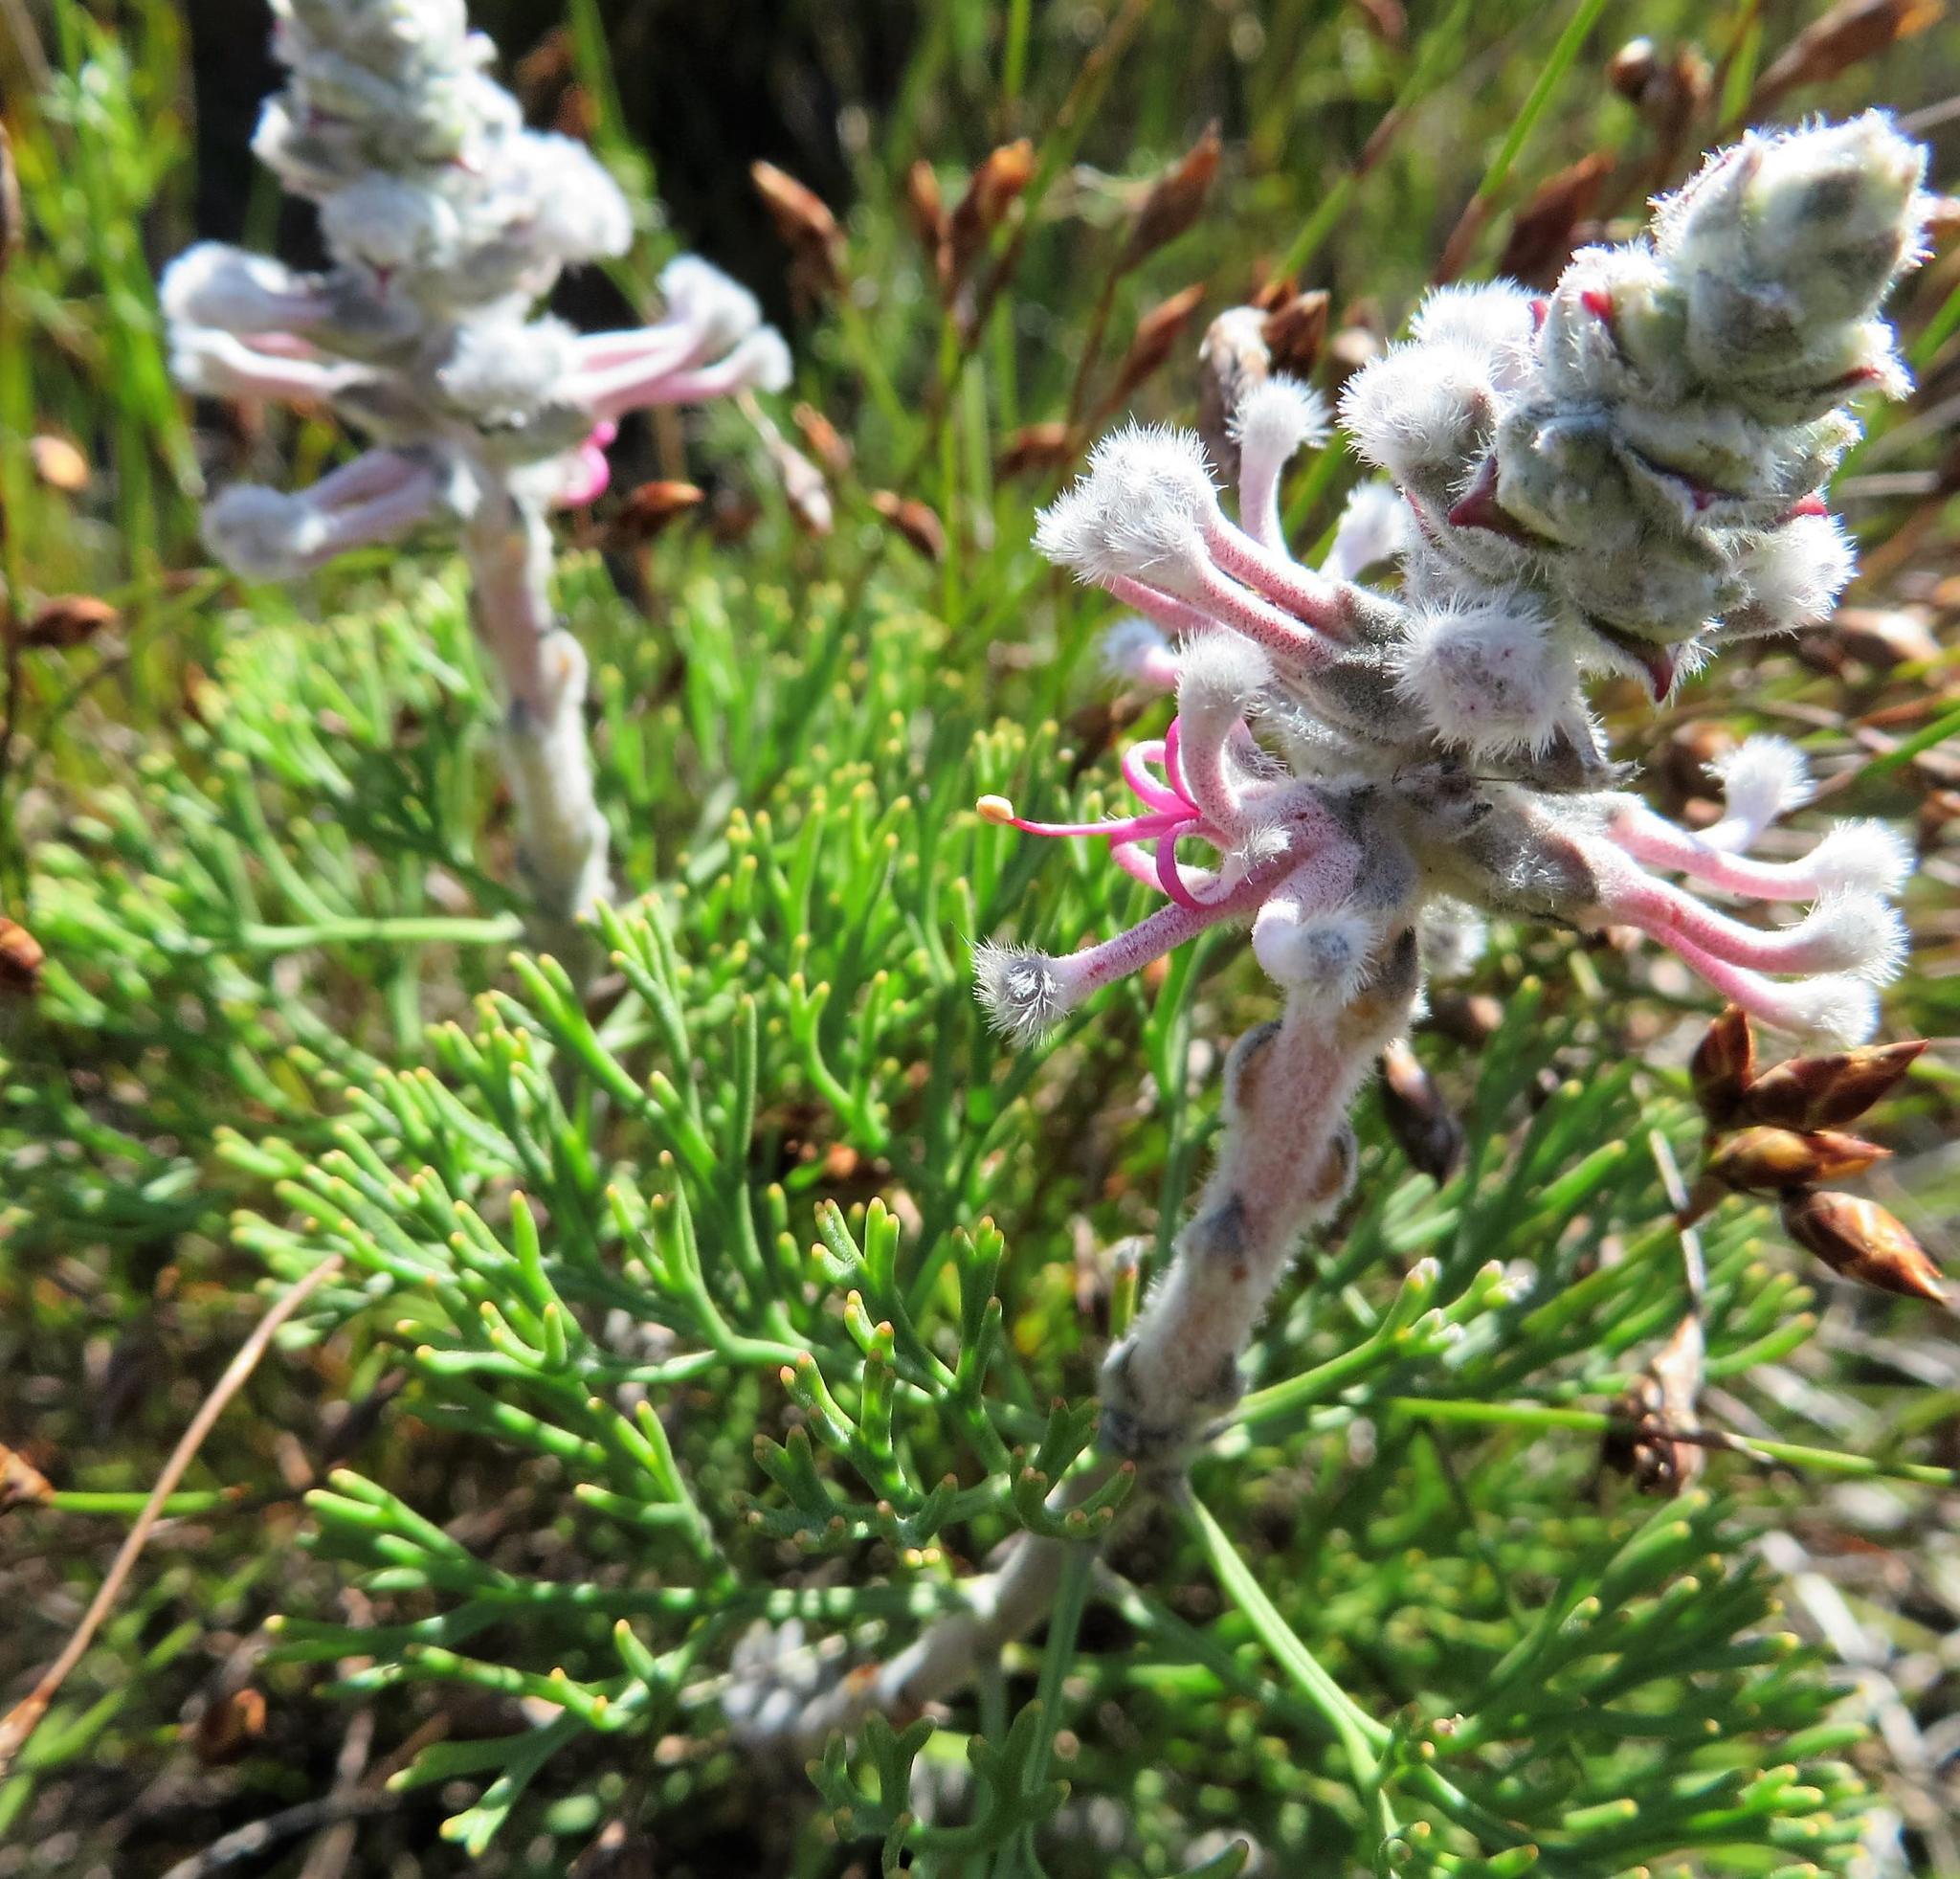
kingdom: Plantae
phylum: Tracheophyta
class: Magnoliopsida
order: Proteales
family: Proteaceae
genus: Paranomus
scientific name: Paranomus bolusii
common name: Overberg sceptre
